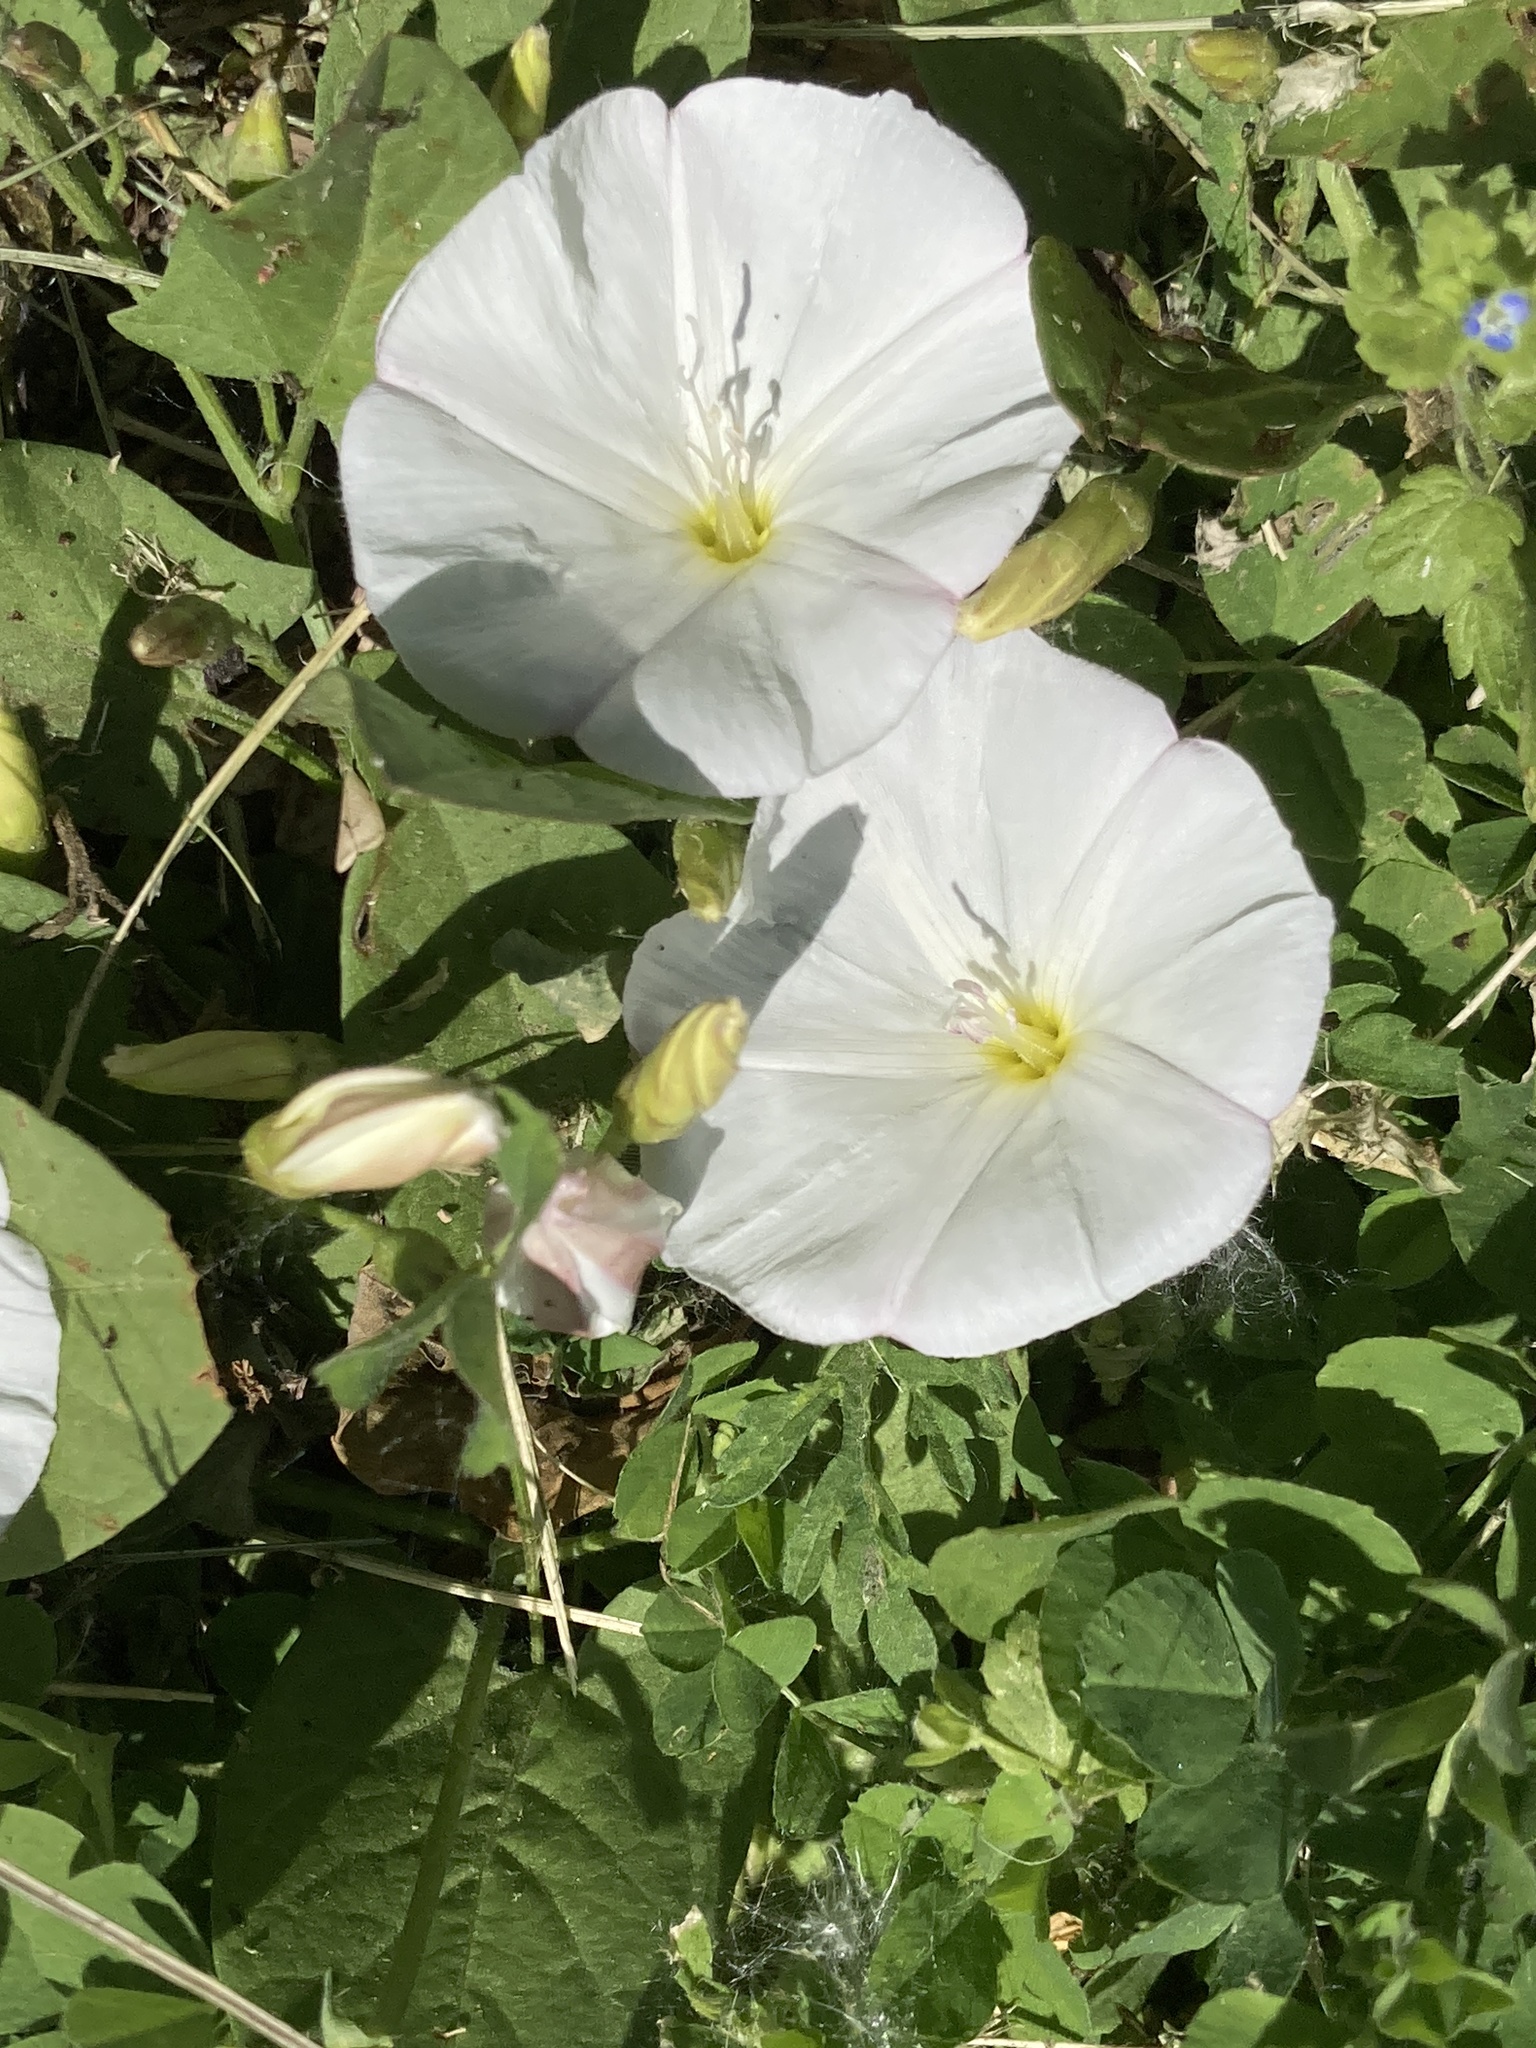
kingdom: Plantae
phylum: Tracheophyta
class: Magnoliopsida
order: Solanales
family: Convolvulaceae
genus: Convolvulus
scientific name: Convolvulus arvensis
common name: Field bindweed
